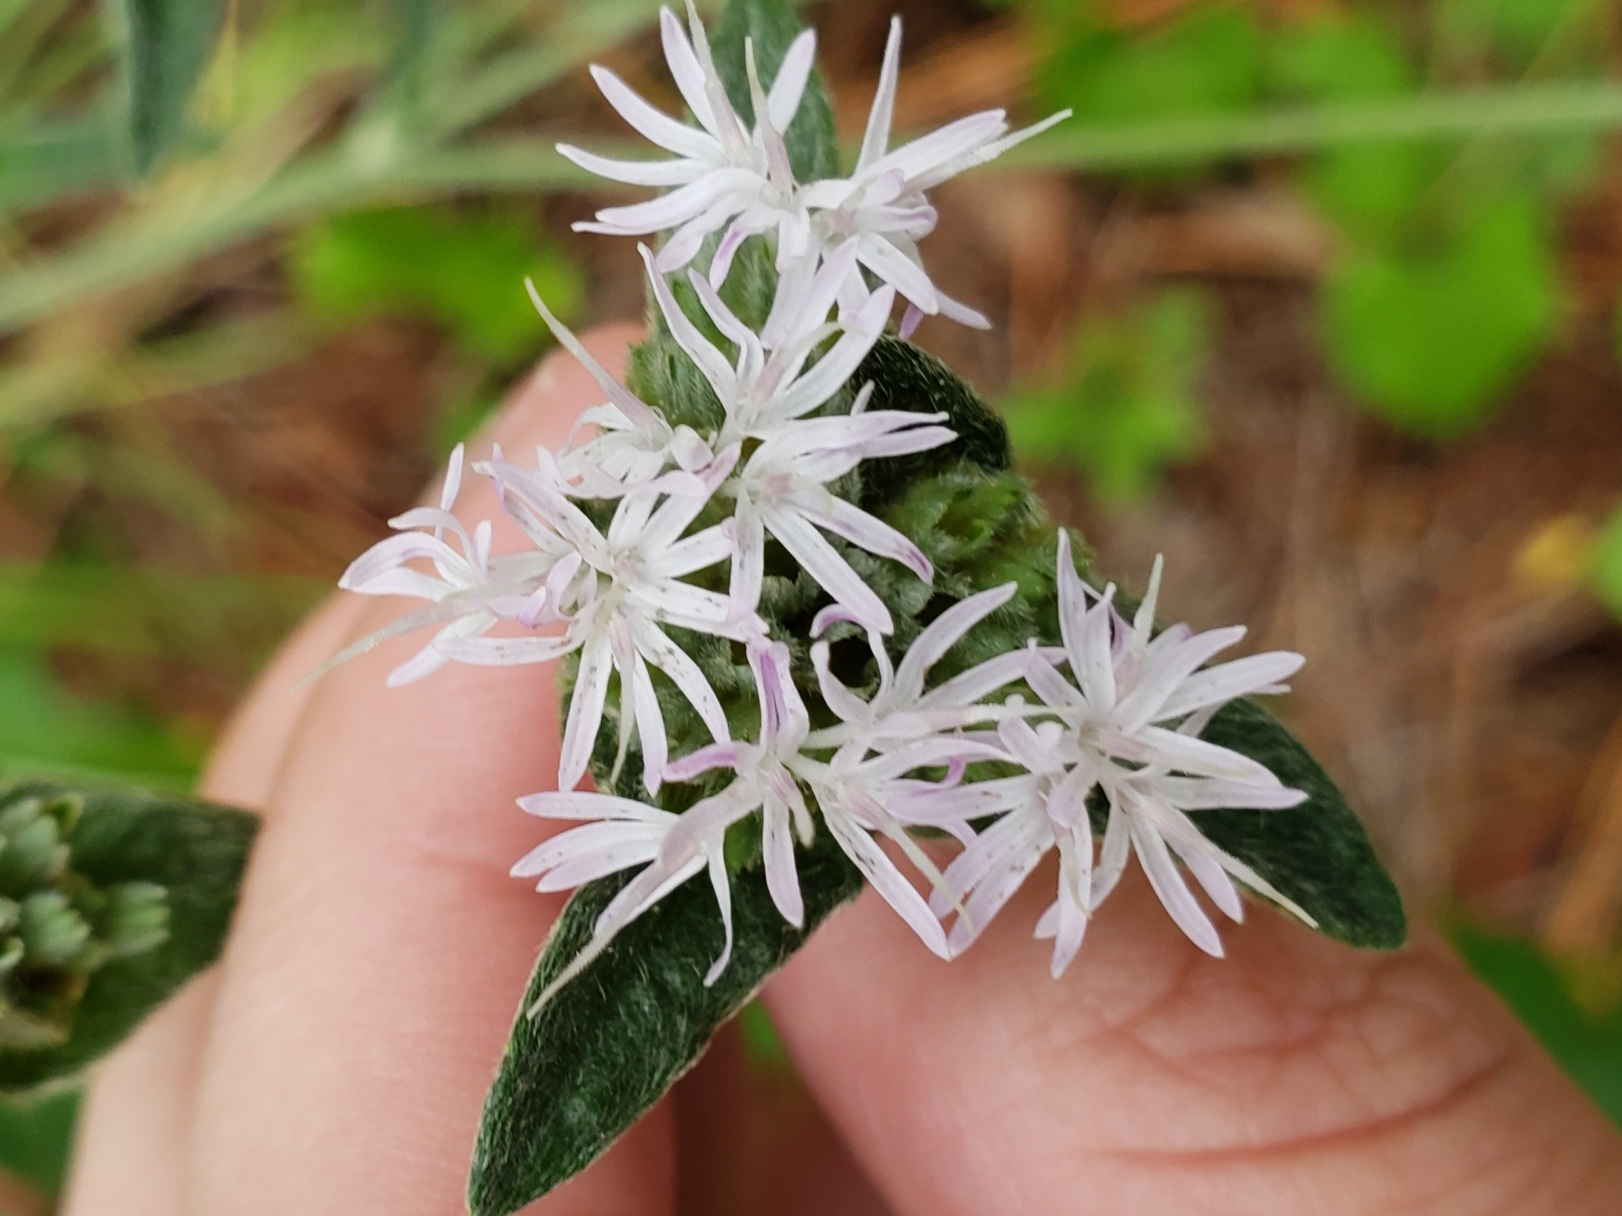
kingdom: Plantae
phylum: Tracheophyta
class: Magnoliopsida
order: Asterales
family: Asteraceae
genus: Elephantopus
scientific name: Elephantopus elatus
